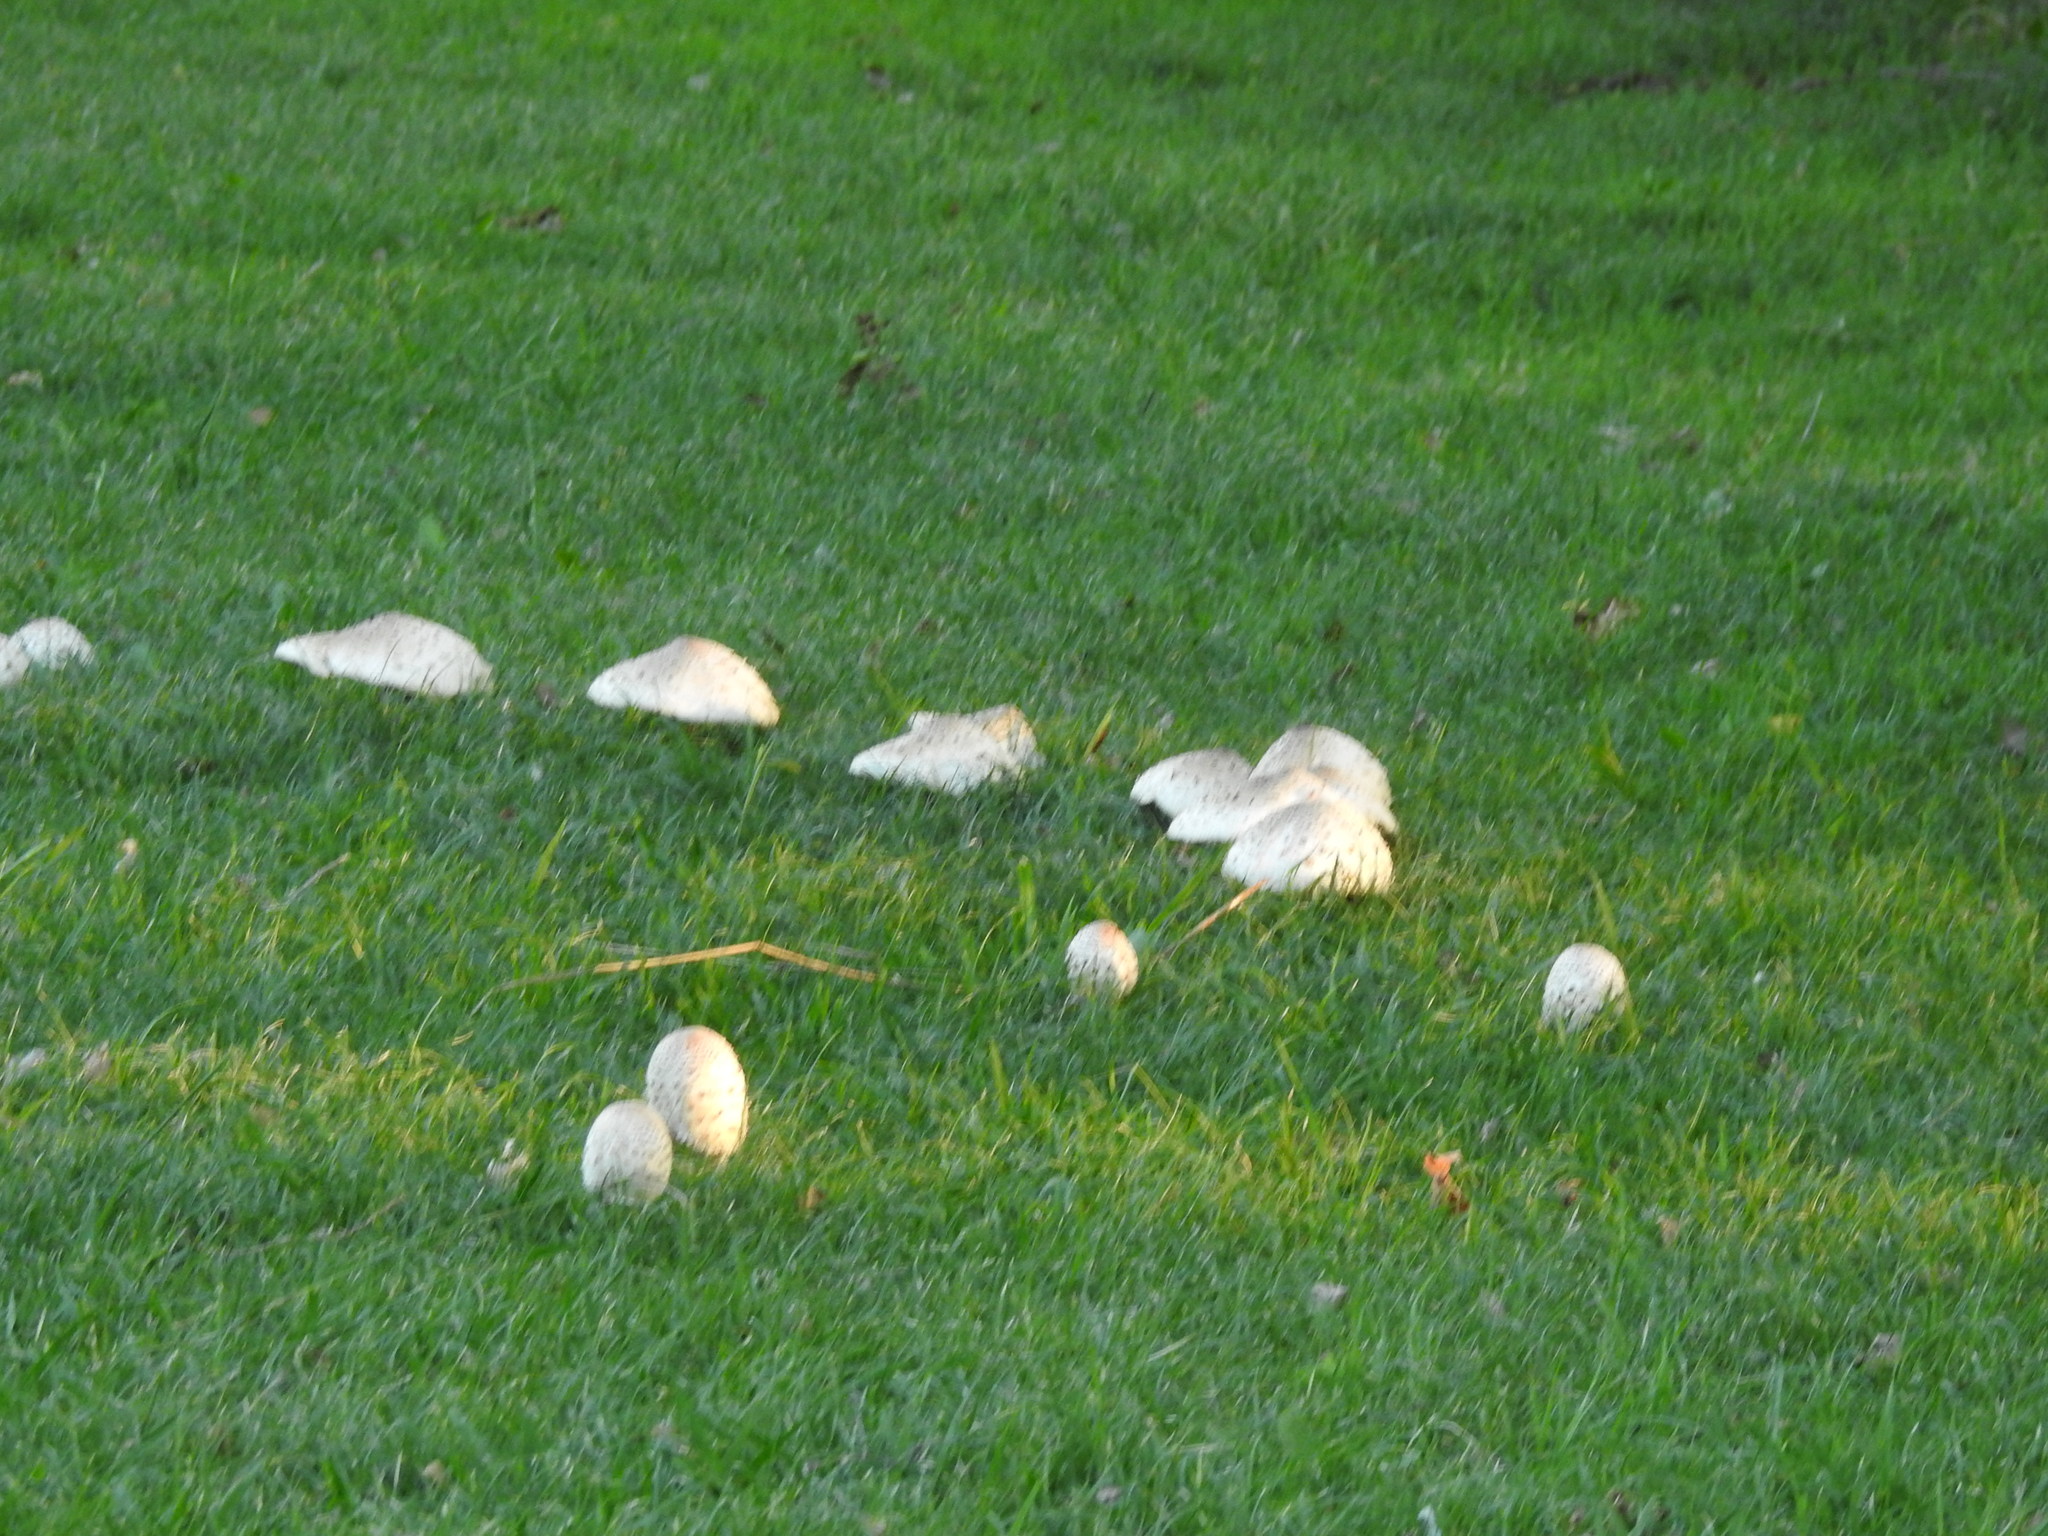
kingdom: Fungi
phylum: Basidiomycota
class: Agaricomycetes
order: Agaricales
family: Agaricaceae
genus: Chlorophyllum
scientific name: Chlorophyllum molybdites
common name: False parasol
